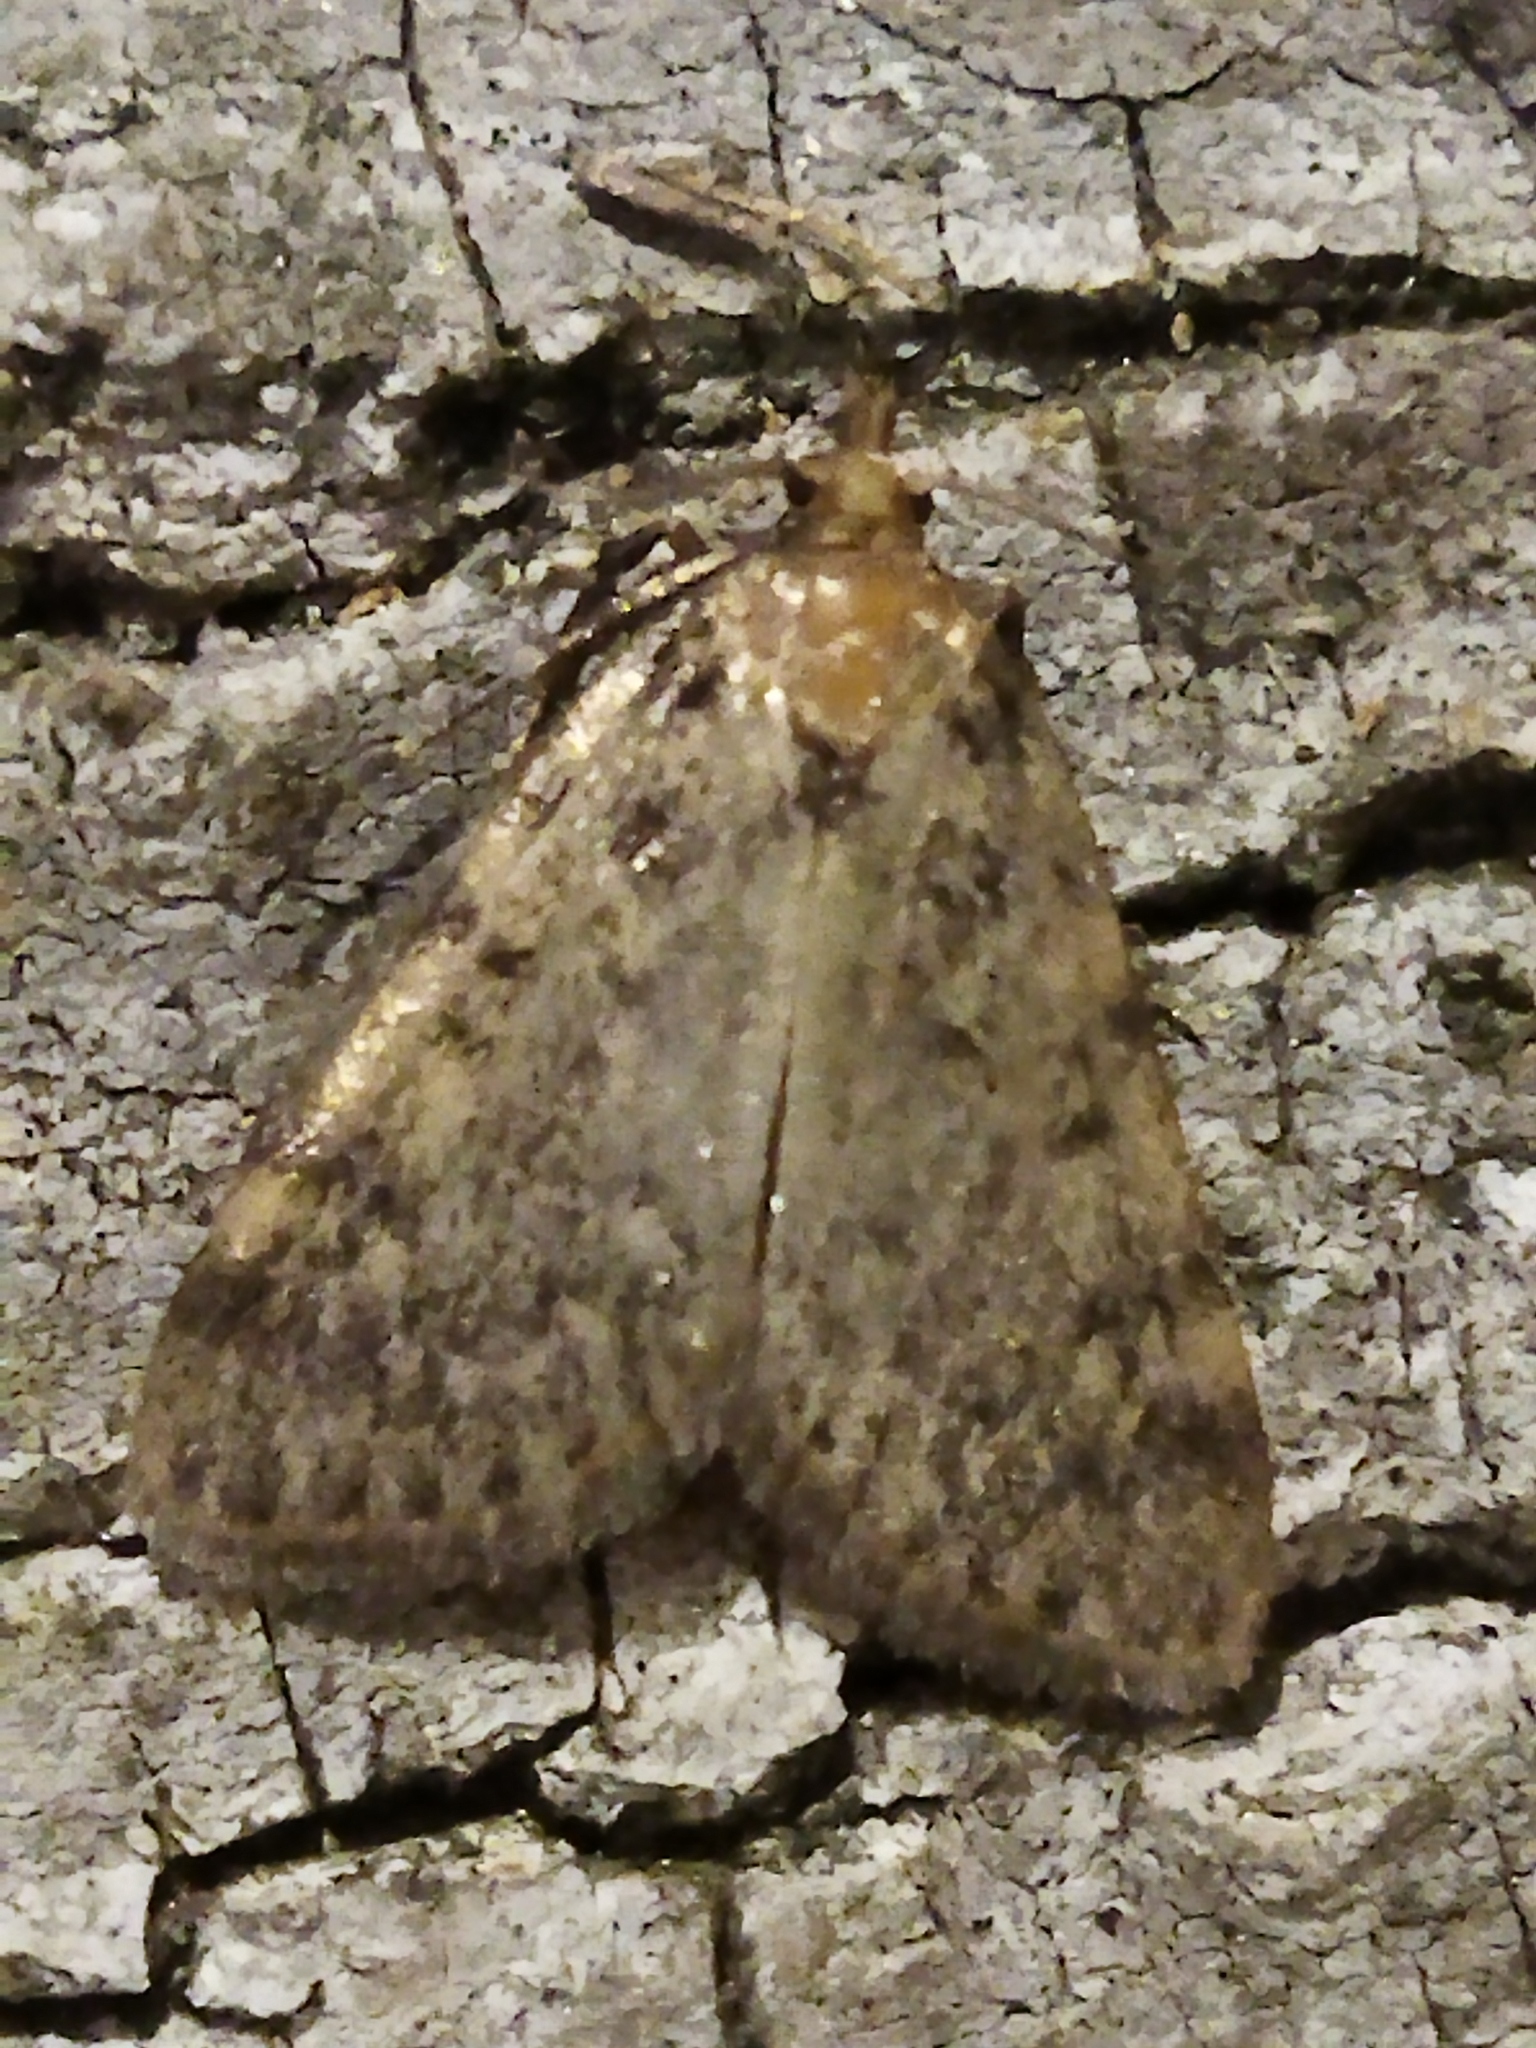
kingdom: Animalia
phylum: Arthropoda
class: Insecta
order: Lepidoptera
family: Pyralidae
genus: Aglossa
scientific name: Aglossa pinguinalis
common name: Large tabby
